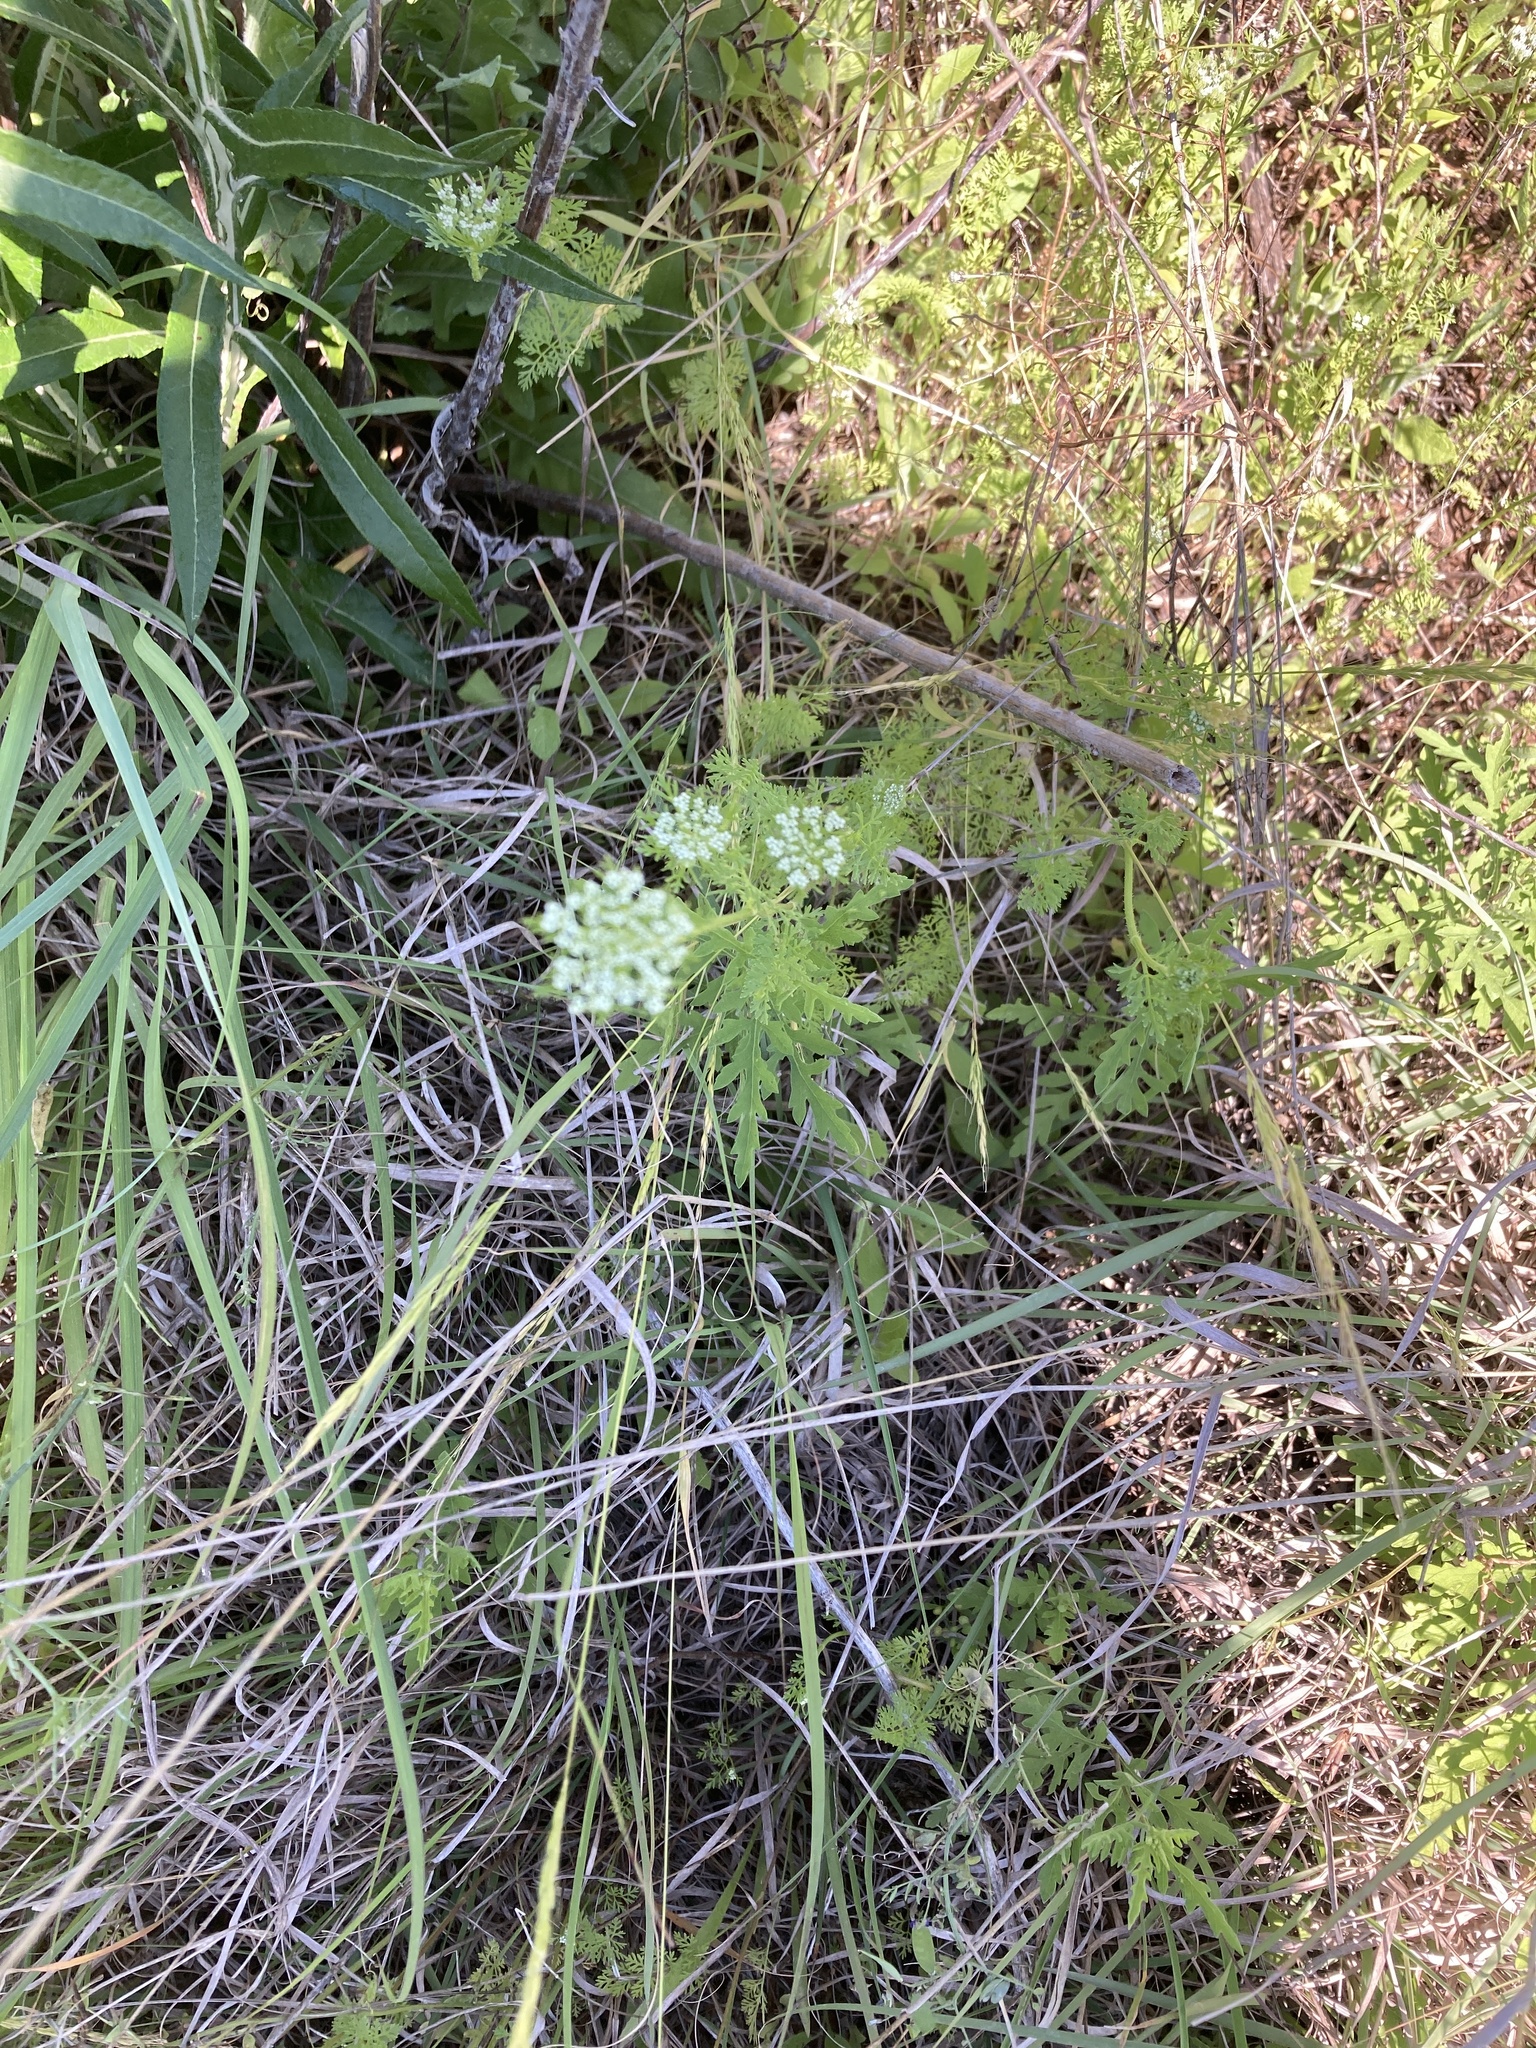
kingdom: Plantae
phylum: Tracheophyta
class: Magnoliopsida
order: Apiales
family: Apiaceae
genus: Daucus
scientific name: Daucus pusillus
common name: Southwest wild carrot
